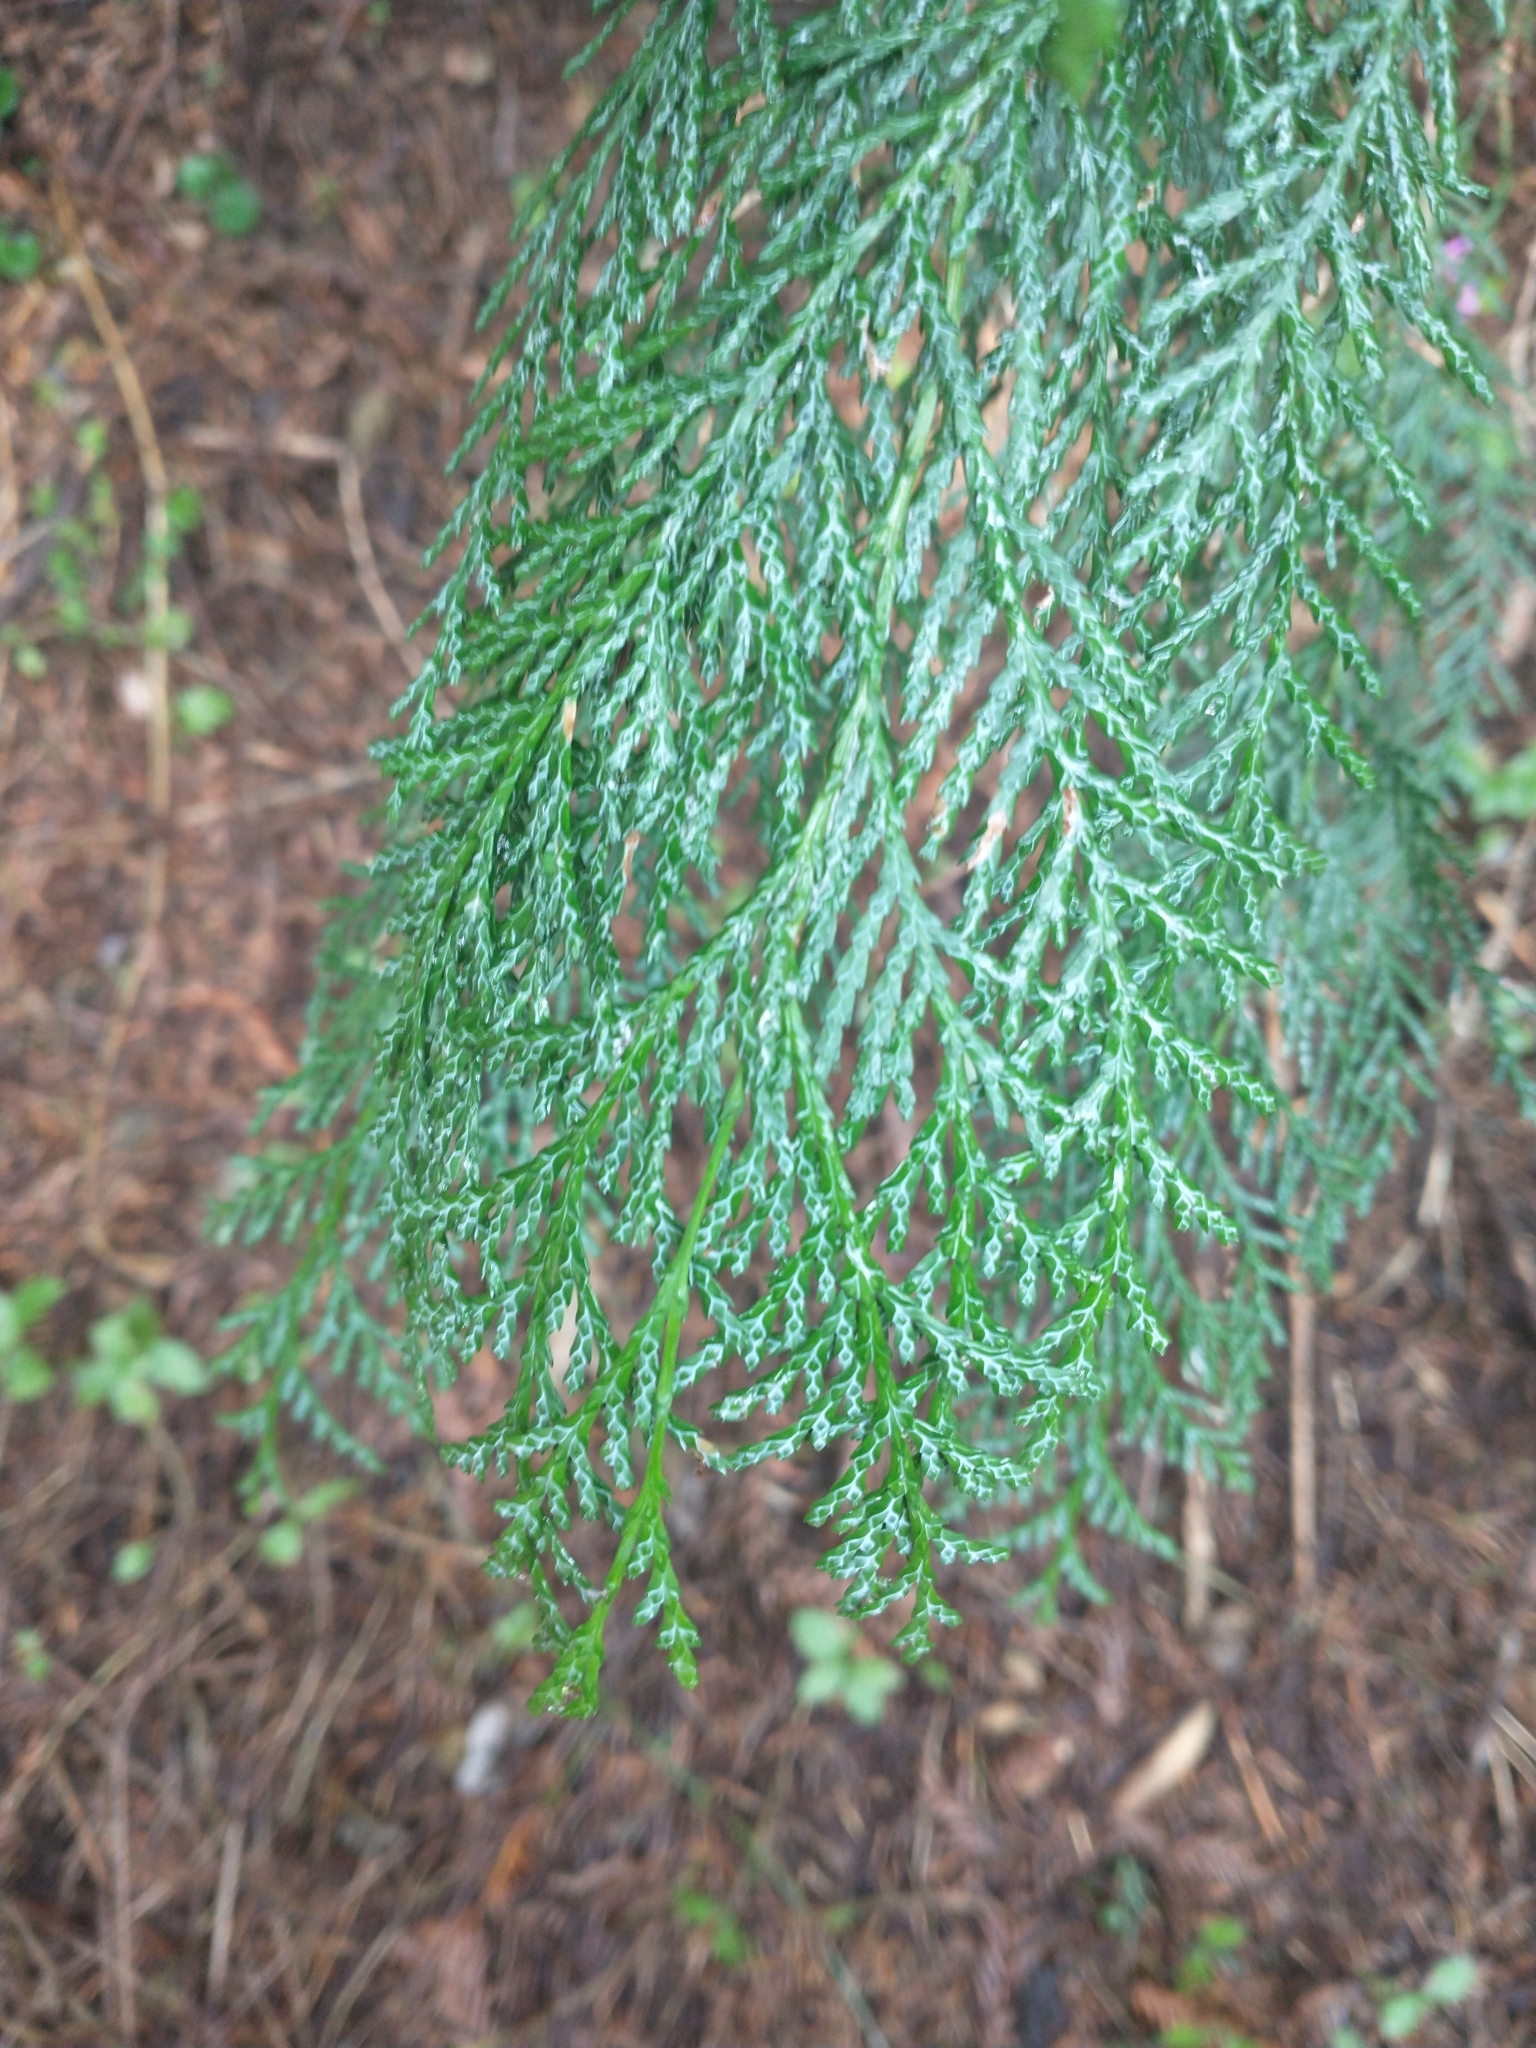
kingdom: Plantae
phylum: Tracheophyta
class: Pinopsida
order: Pinales
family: Cupressaceae
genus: Chamaecyparis
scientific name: Chamaecyparis lawsoniana
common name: Lawson's cypress
